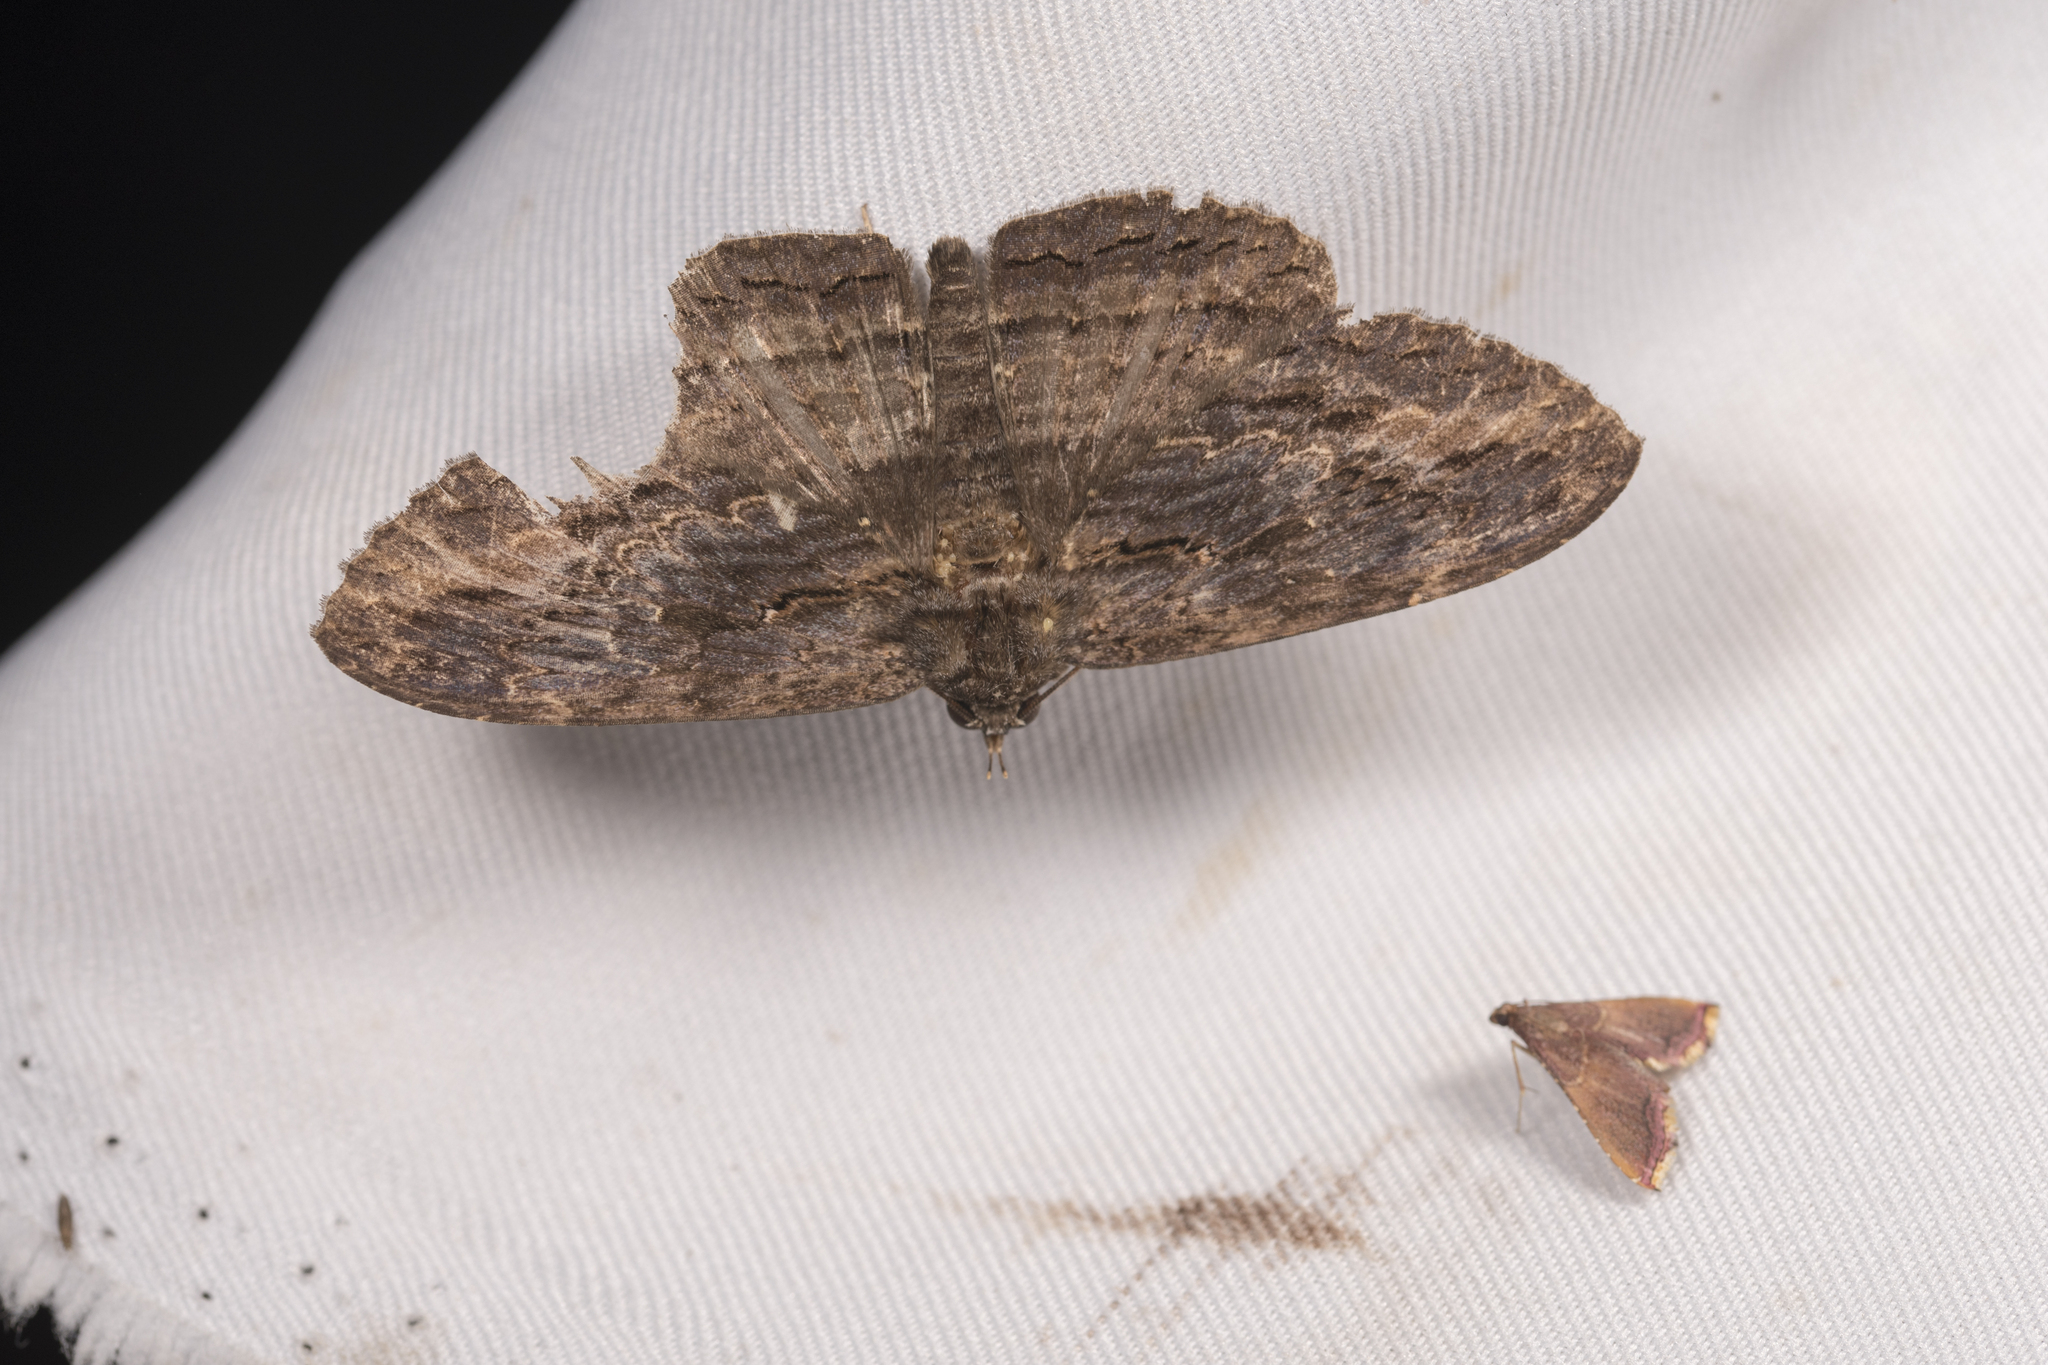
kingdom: Animalia
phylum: Arthropoda
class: Insecta
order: Lepidoptera
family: Erebidae
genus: Anisoneura
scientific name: Anisoneura salebrosa
